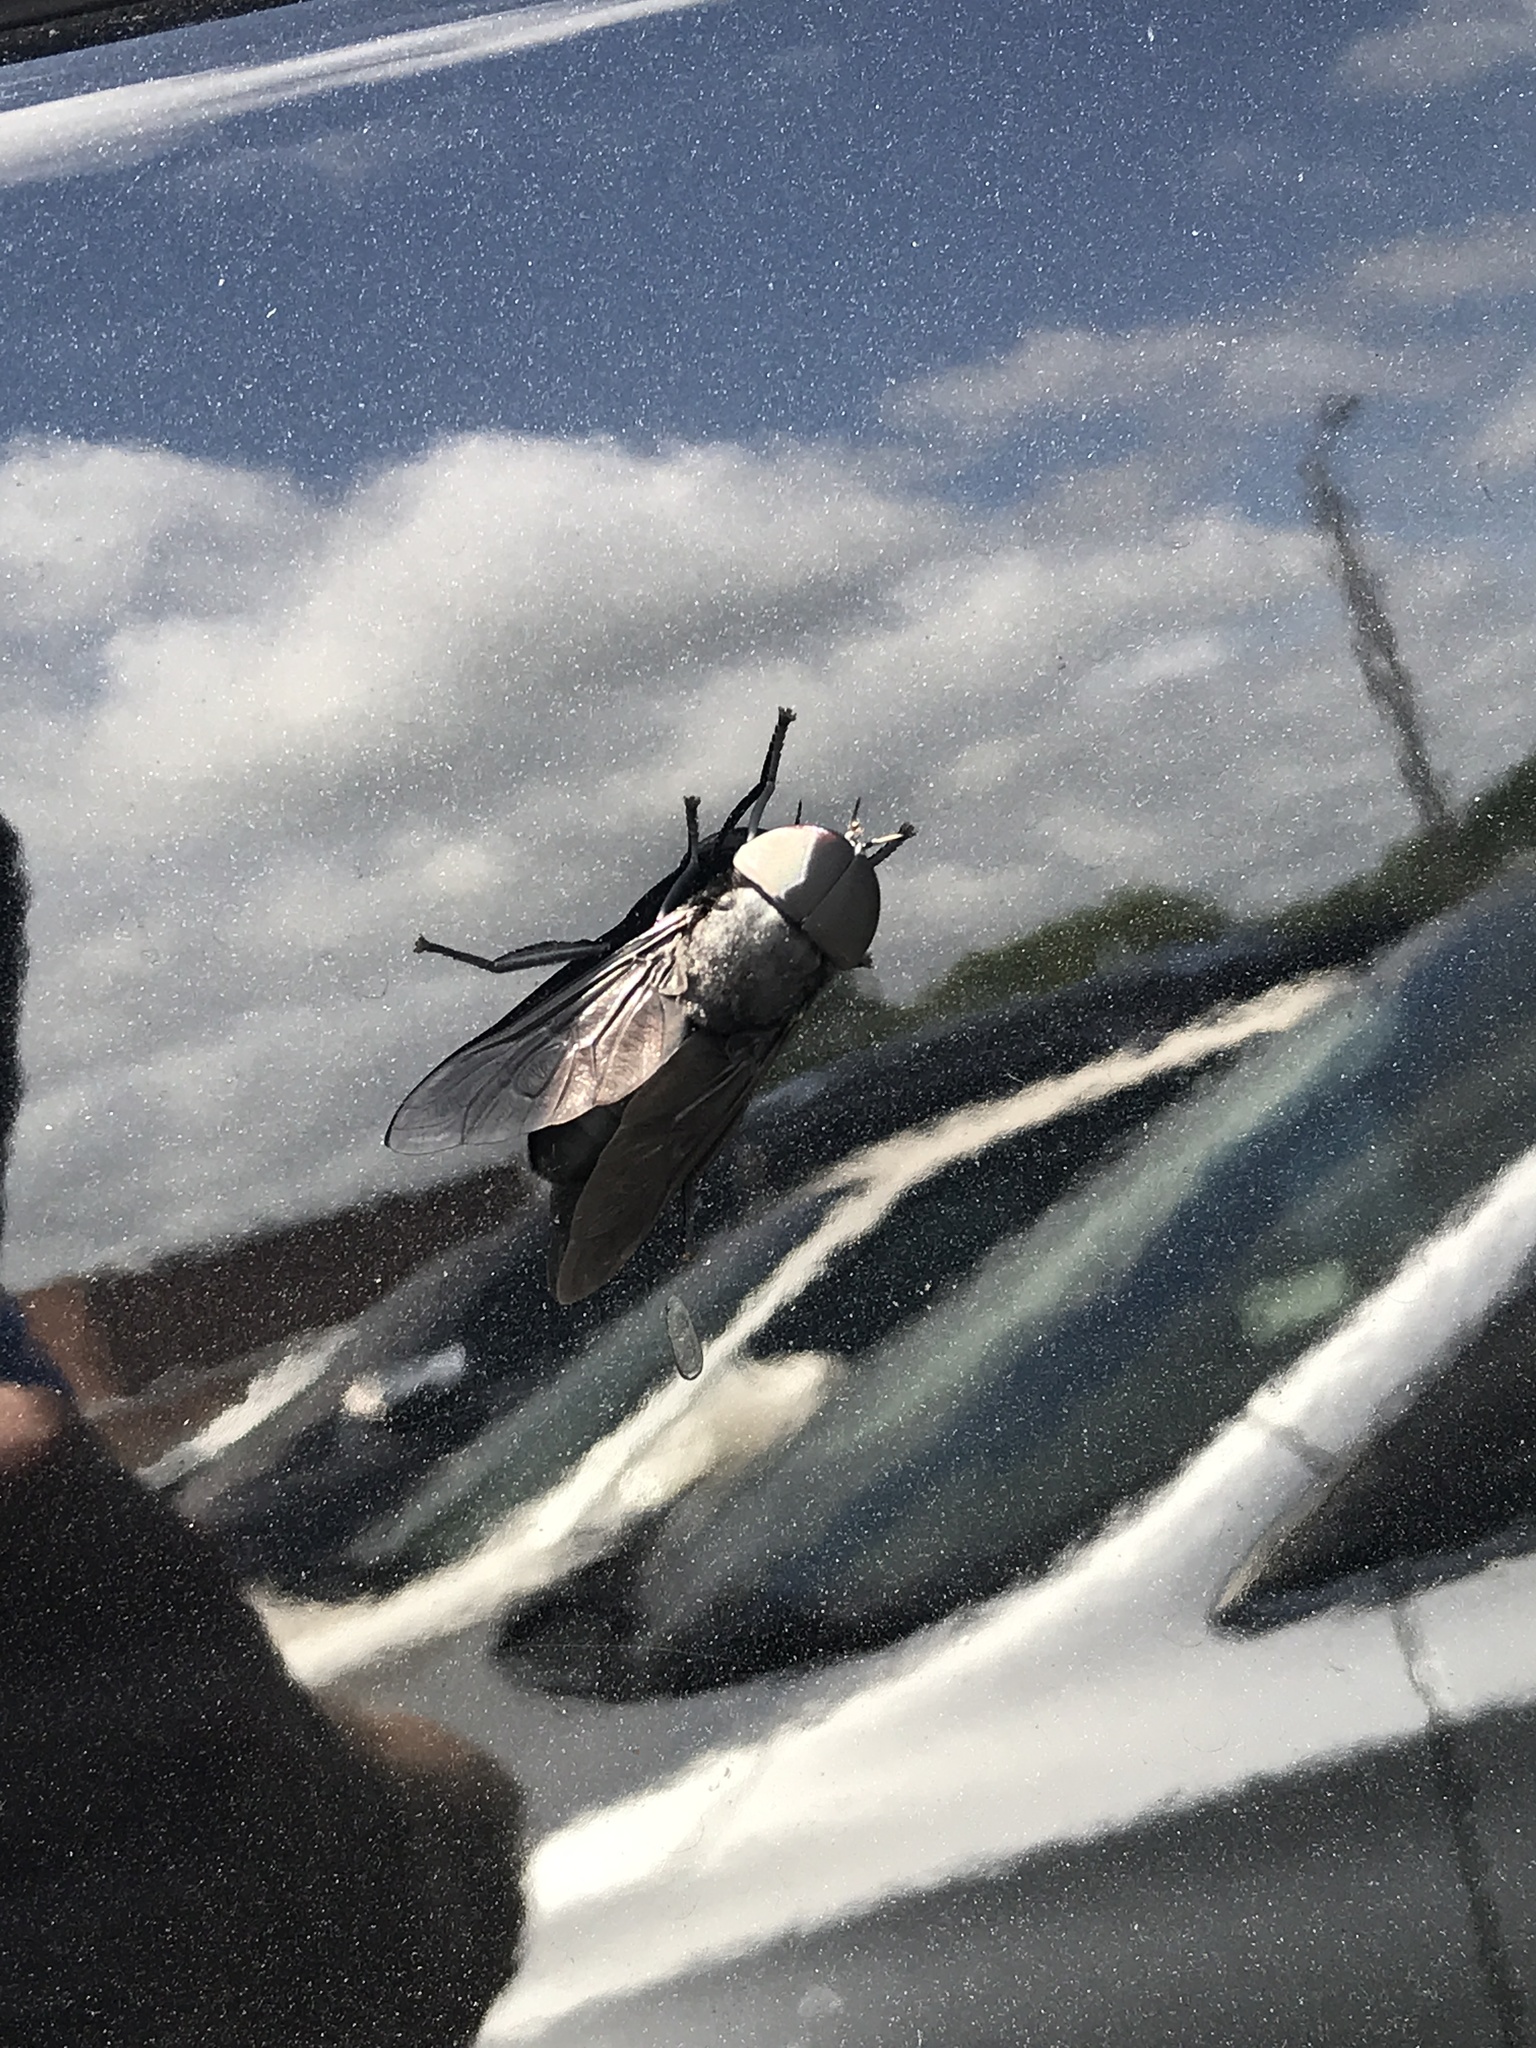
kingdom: Animalia
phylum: Arthropoda
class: Insecta
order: Diptera
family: Tabanidae
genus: Tabanus
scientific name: Tabanus atratus
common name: Black horse fly
